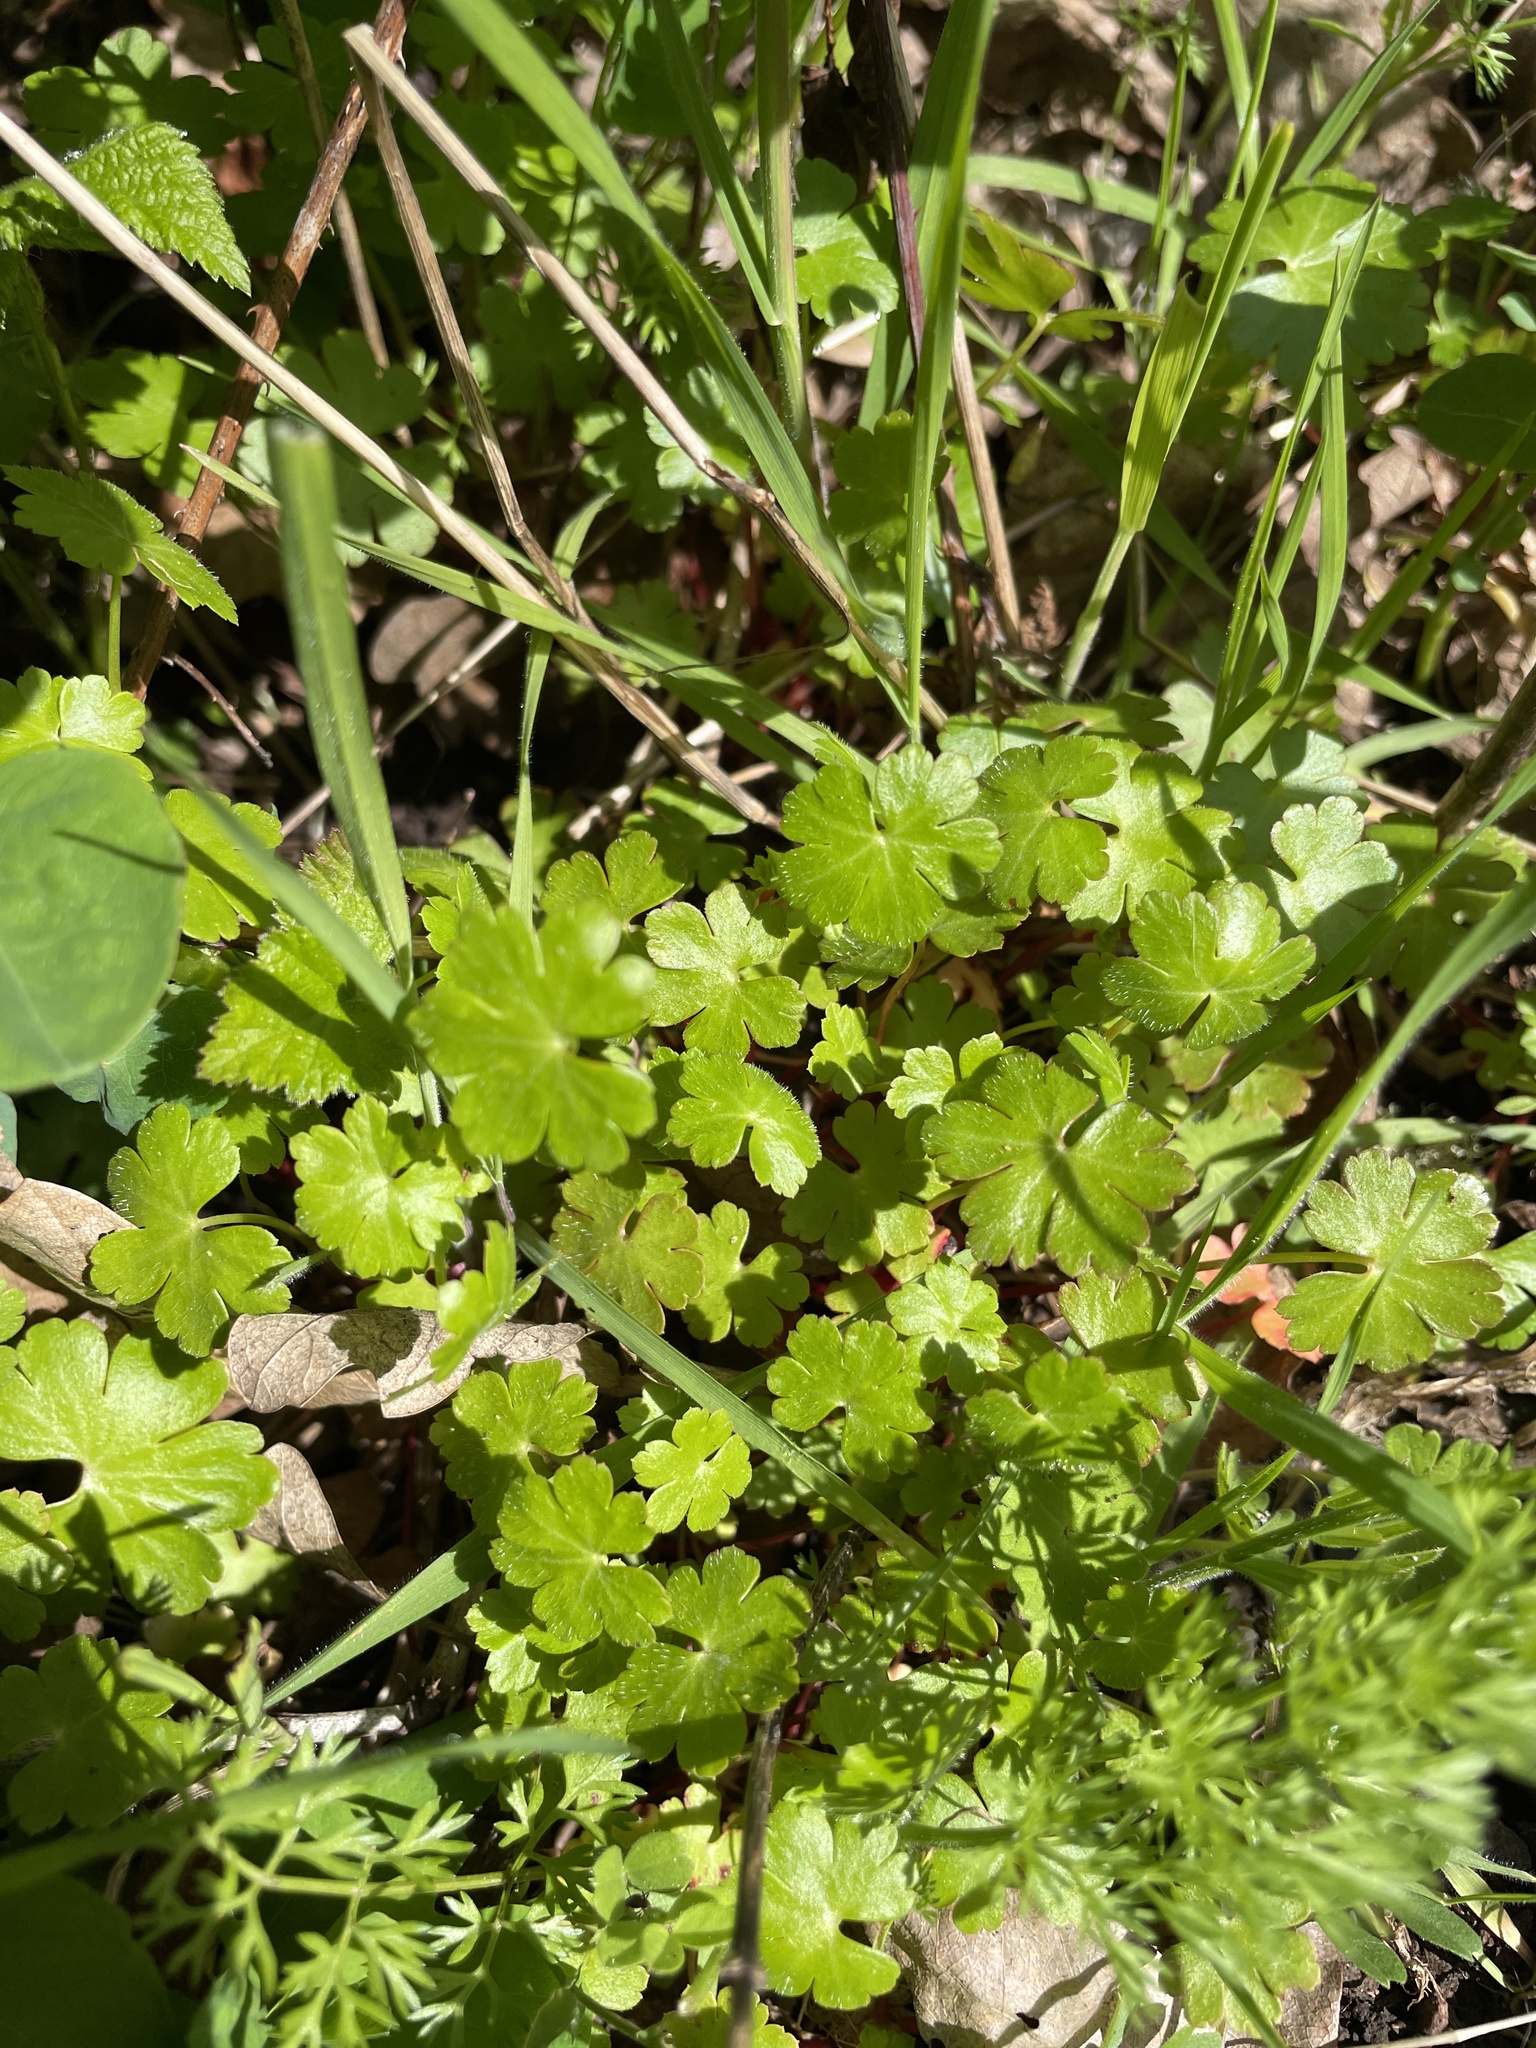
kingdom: Plantae
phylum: Tracheophyta
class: Magnoliopsida
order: Geraniales
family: Geraniaceae
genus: Geranium
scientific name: Geranium lucidum
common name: Shining crane's-bill
